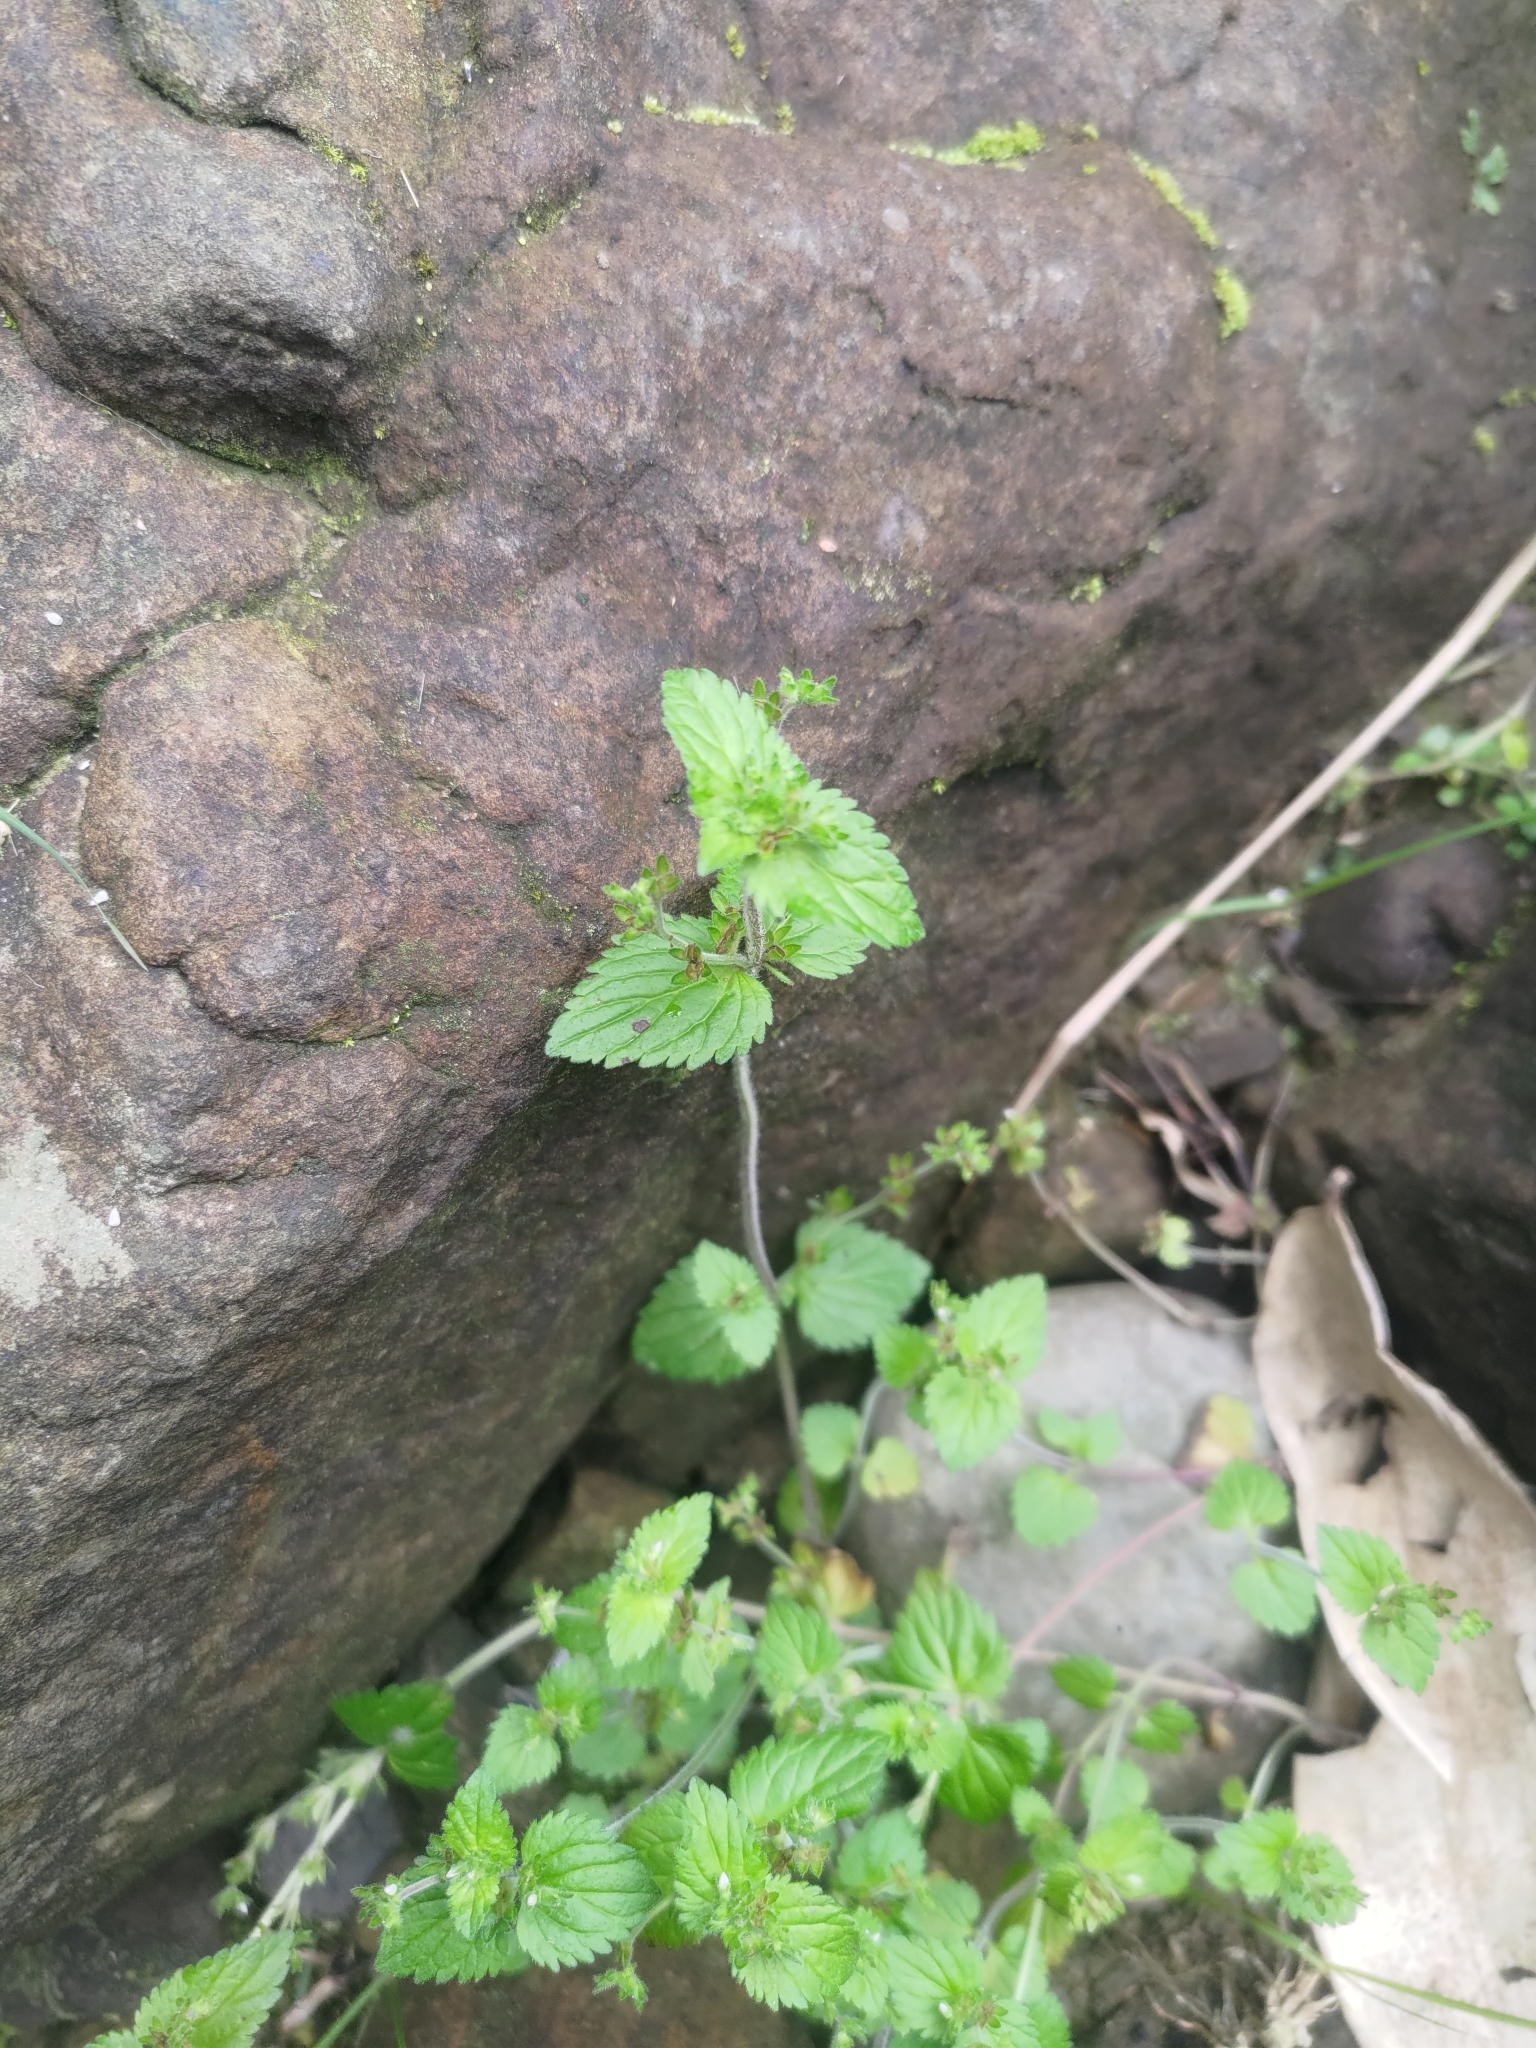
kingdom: Plantae
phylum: Tracheophyta
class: Magnoliopsida
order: Lamiales
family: Plantaginaceae
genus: Veronica
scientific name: Veronica javanica
